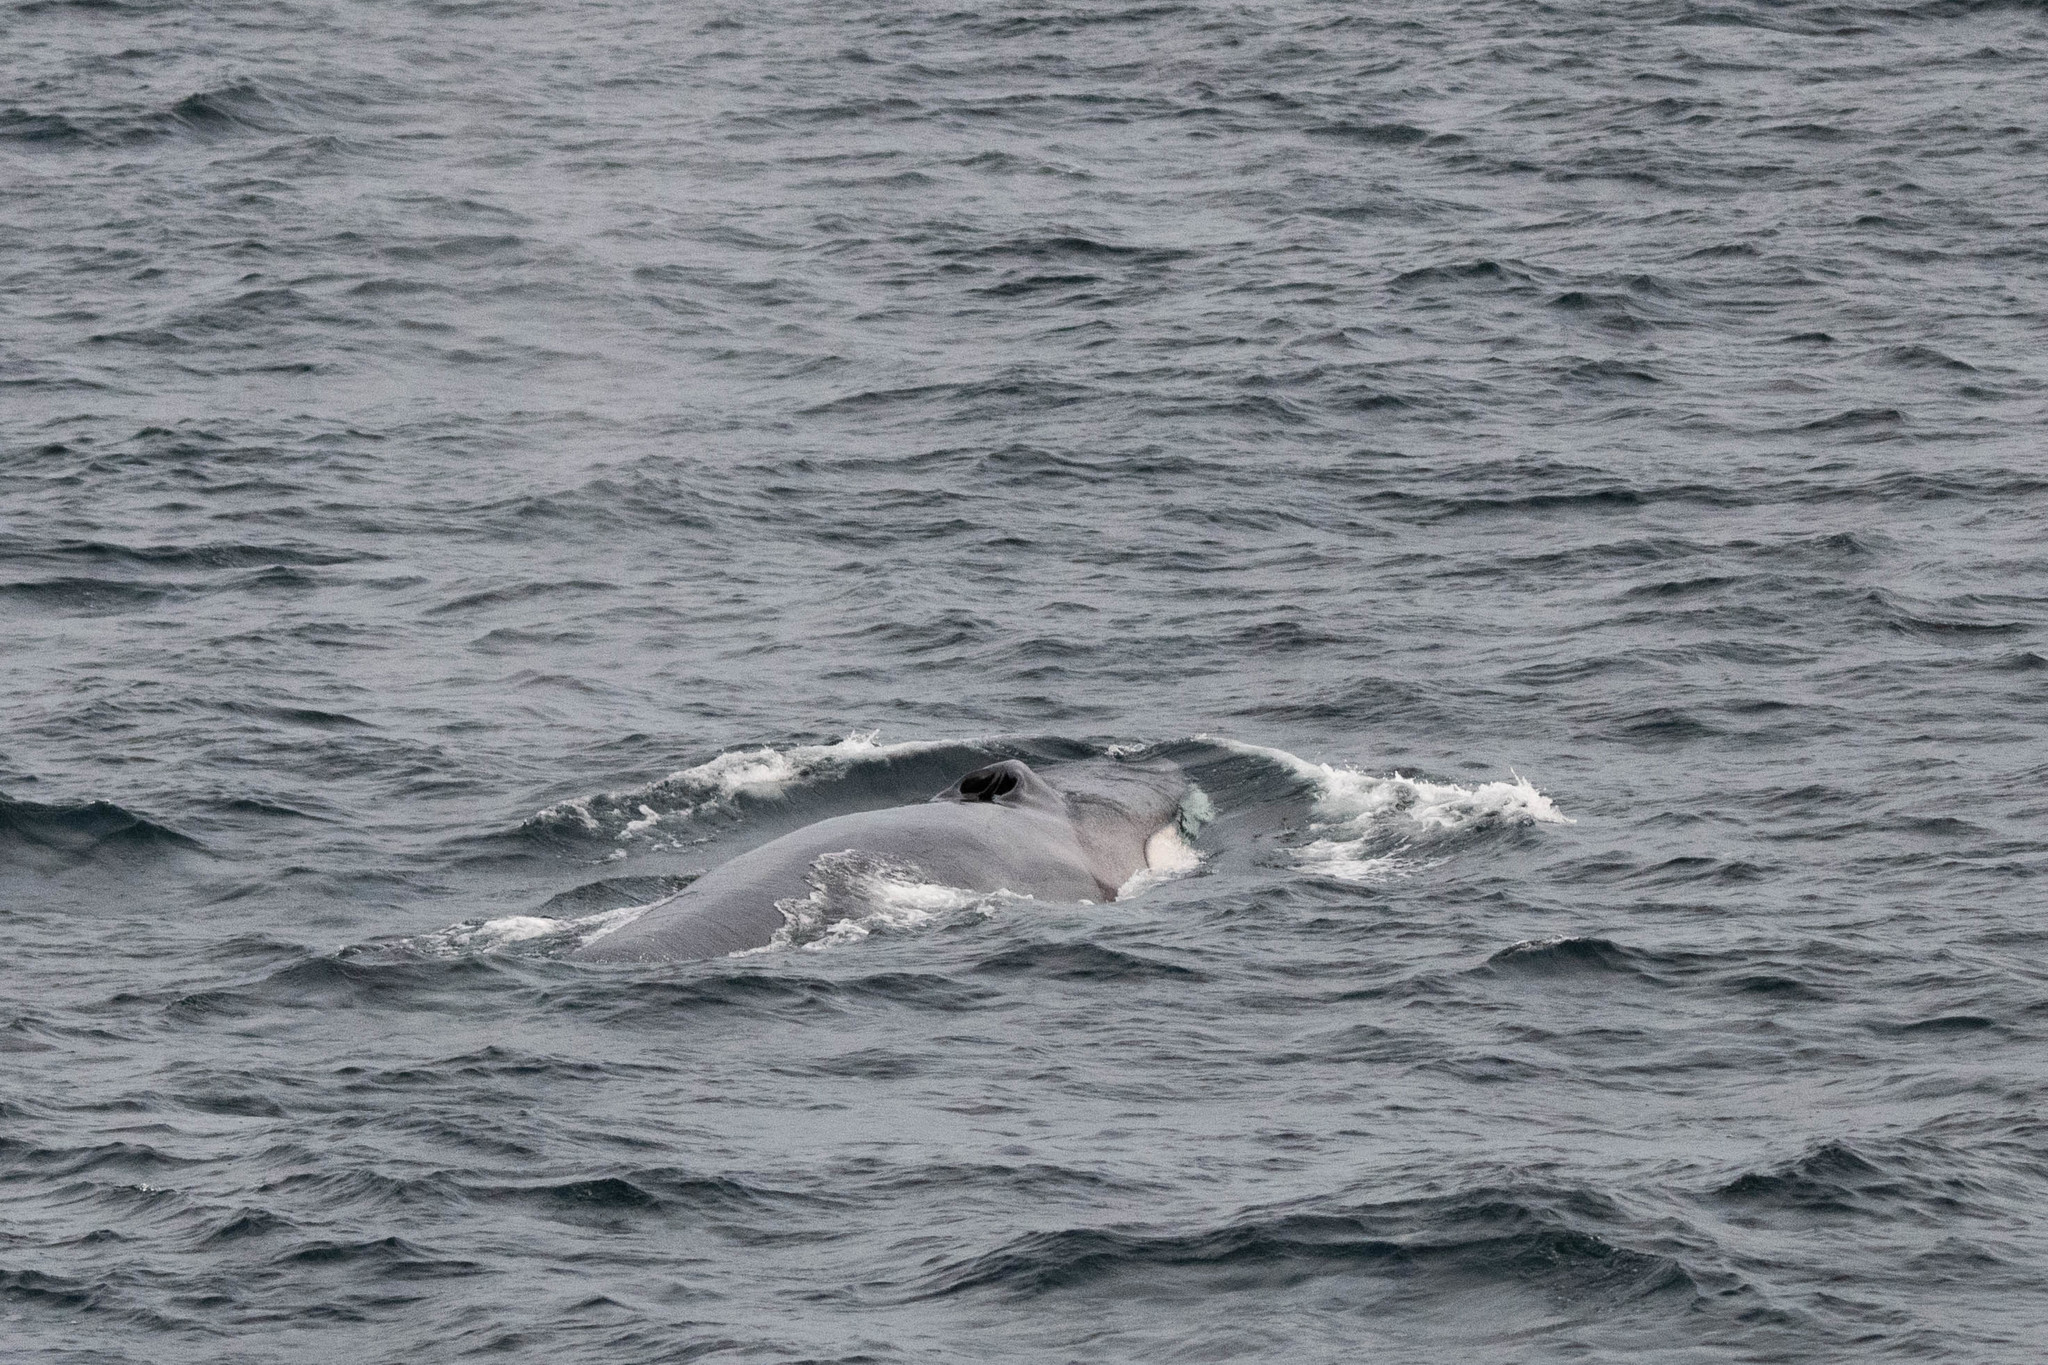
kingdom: Animalia
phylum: Chordata
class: Mammalia
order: Cetacea
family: Balaenopteridae
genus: Balaenoptera
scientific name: Balaenoptera physalus
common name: Fin whale
